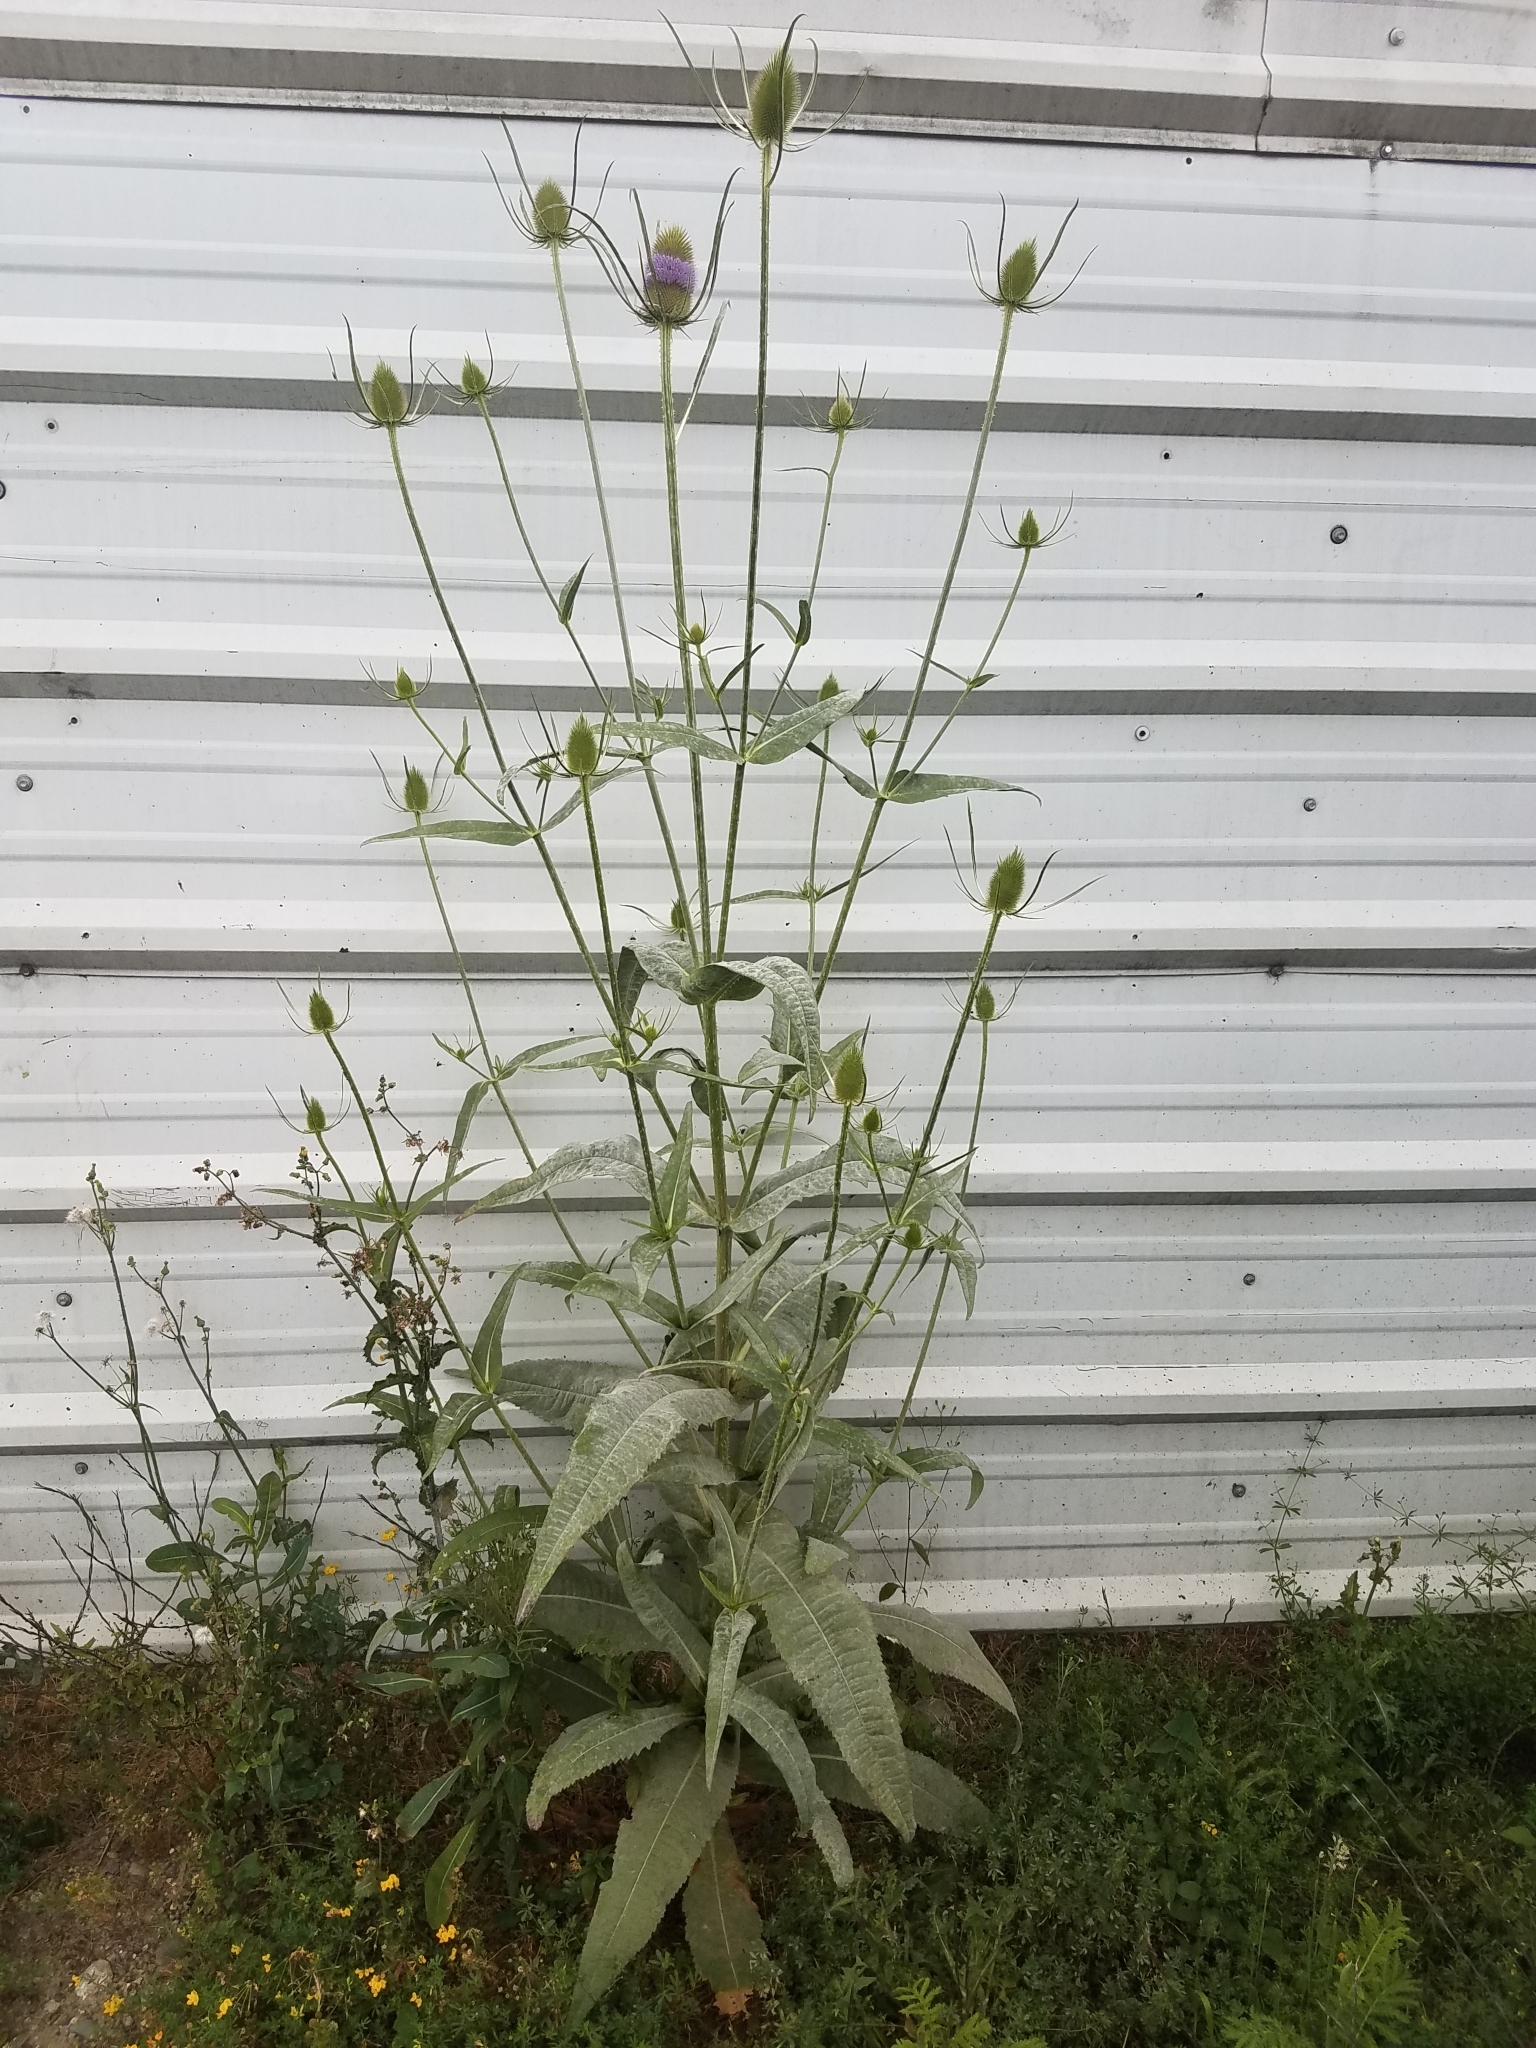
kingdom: Plantae
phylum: Tracheophyta
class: Magnoliopsida
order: Dipsacales
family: Caprifoliaceae
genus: Dipsacus
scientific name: Dipsacus fullonum
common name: Teasel
